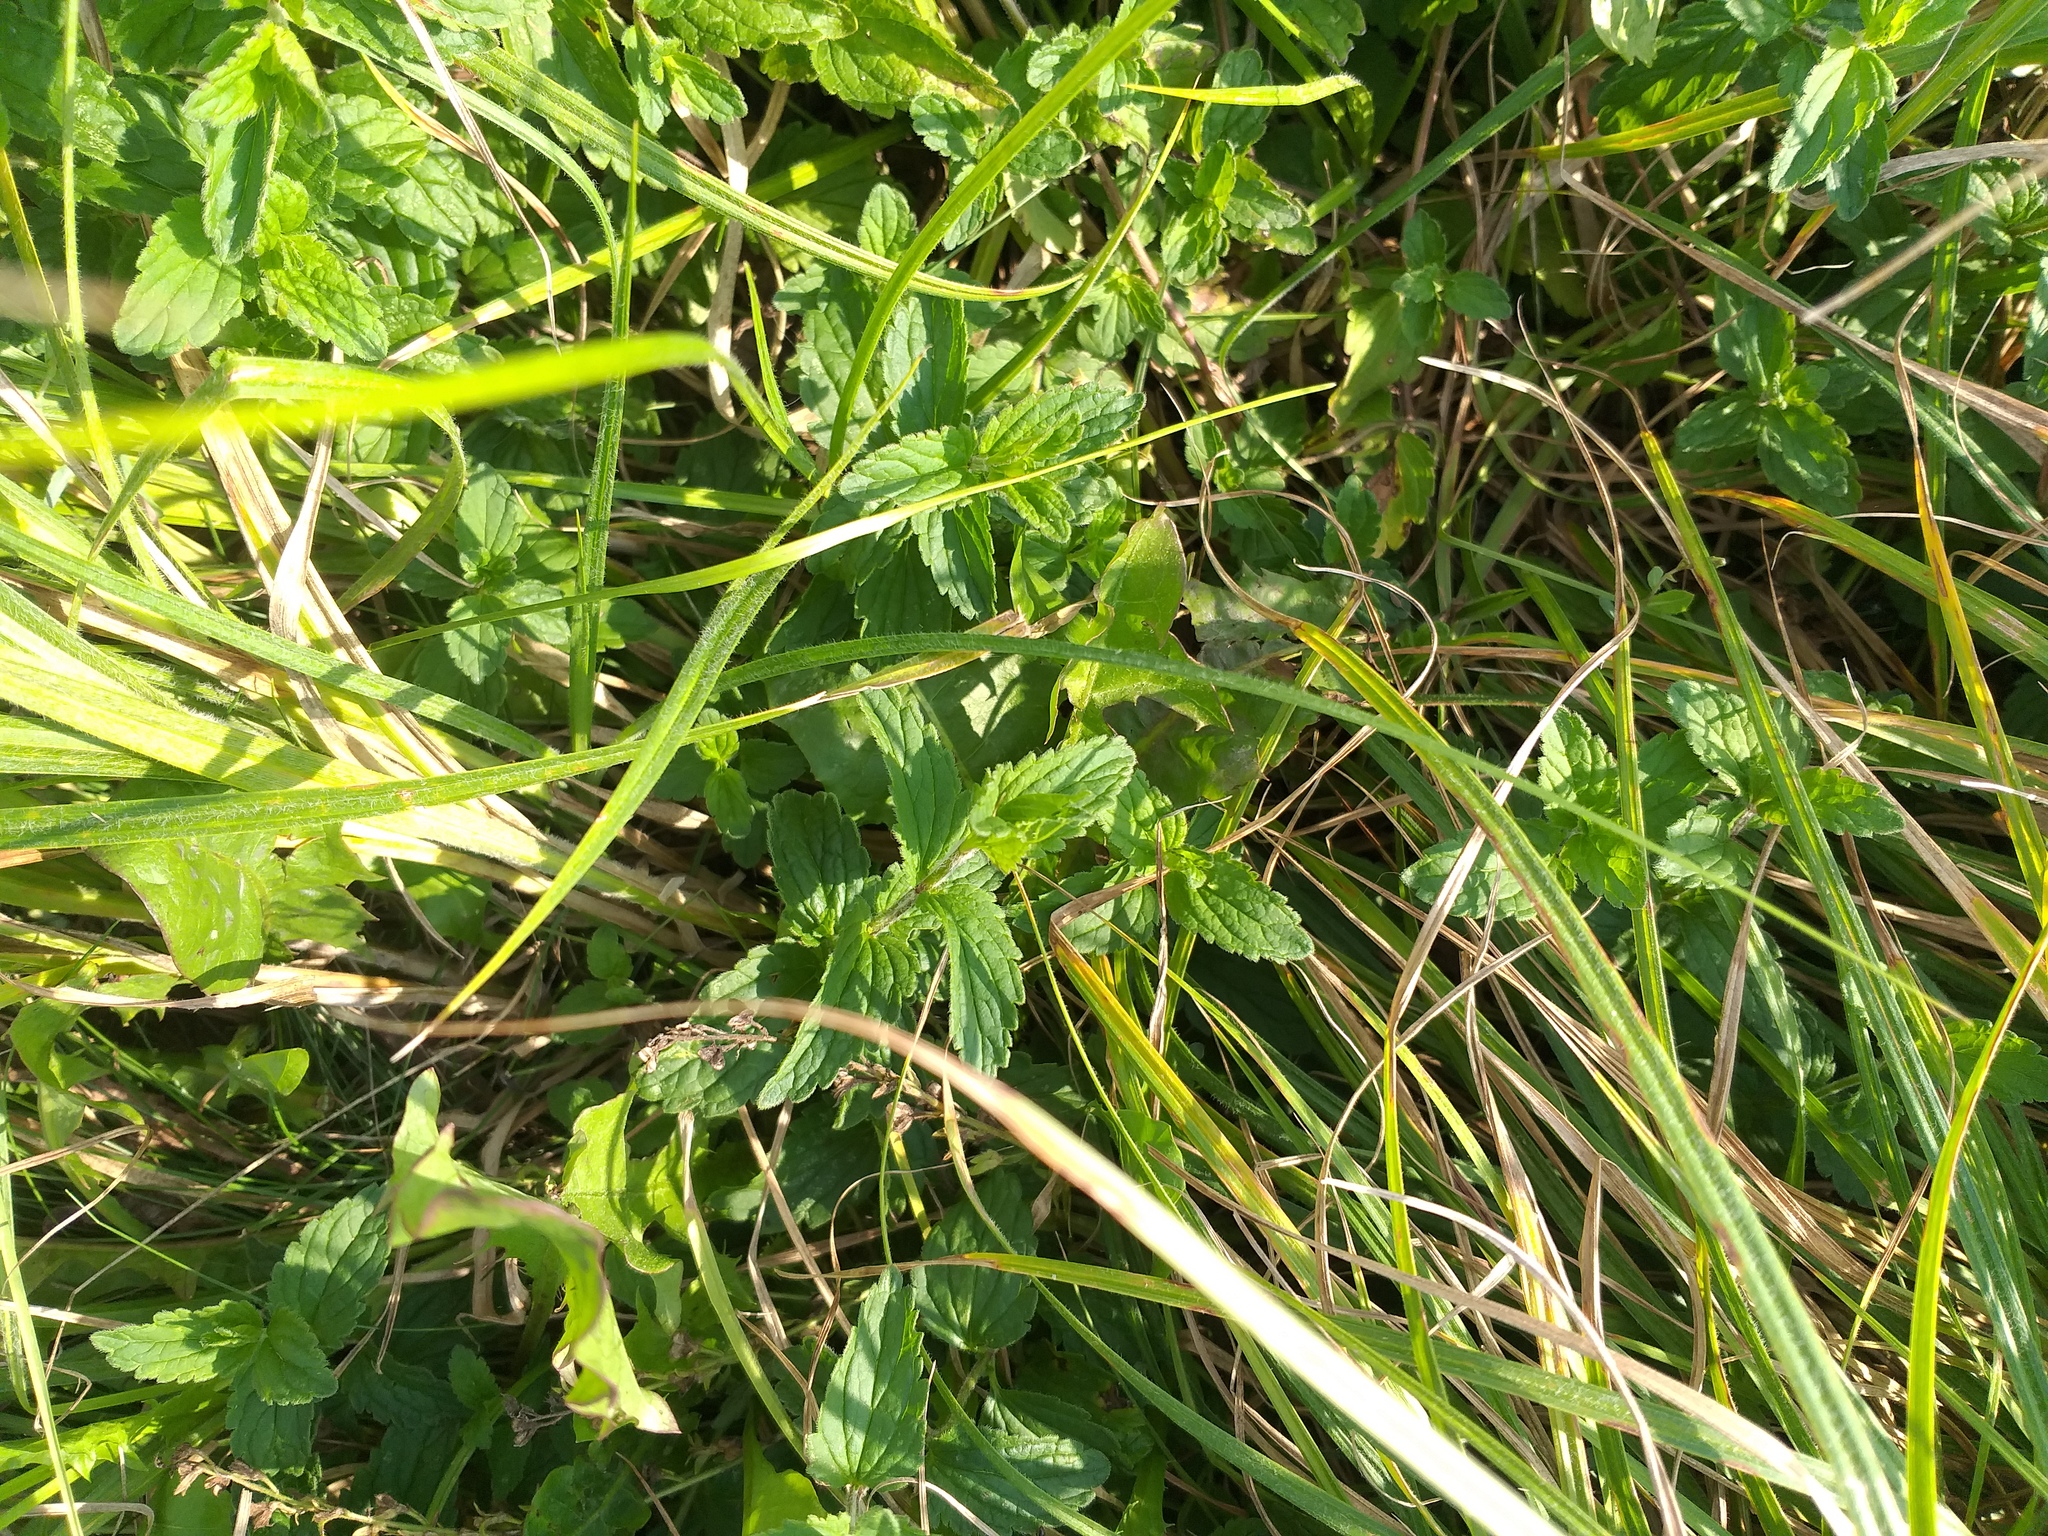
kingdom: Plantae
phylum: Tracheophyta
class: Magnoliopsida
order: Lamiales
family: Plantaginaceae
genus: Veronica
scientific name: Veronica chamaedrys
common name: Germander speedwell
